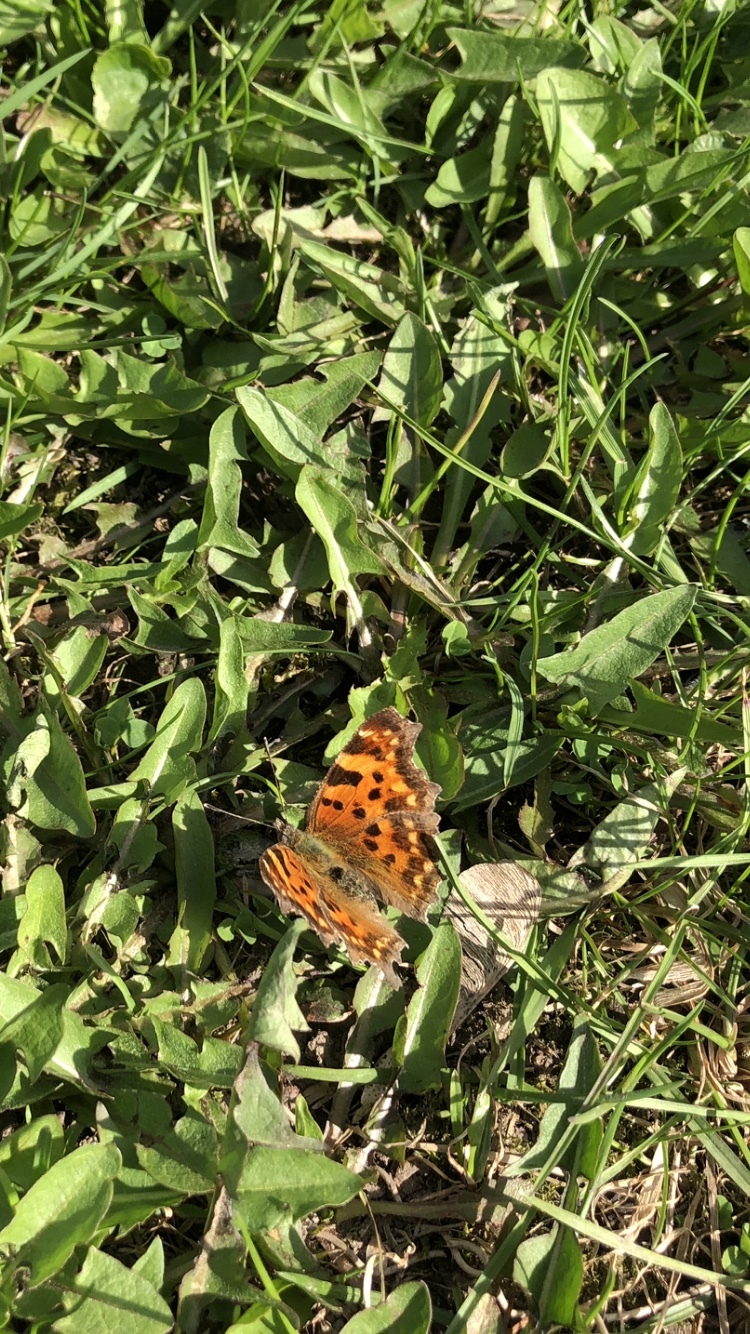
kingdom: Animalia
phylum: Arthropoda
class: Insecta
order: Lepidoptera
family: Nymphalidae
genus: Polygonia
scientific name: Polygonia c-album
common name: Comma
